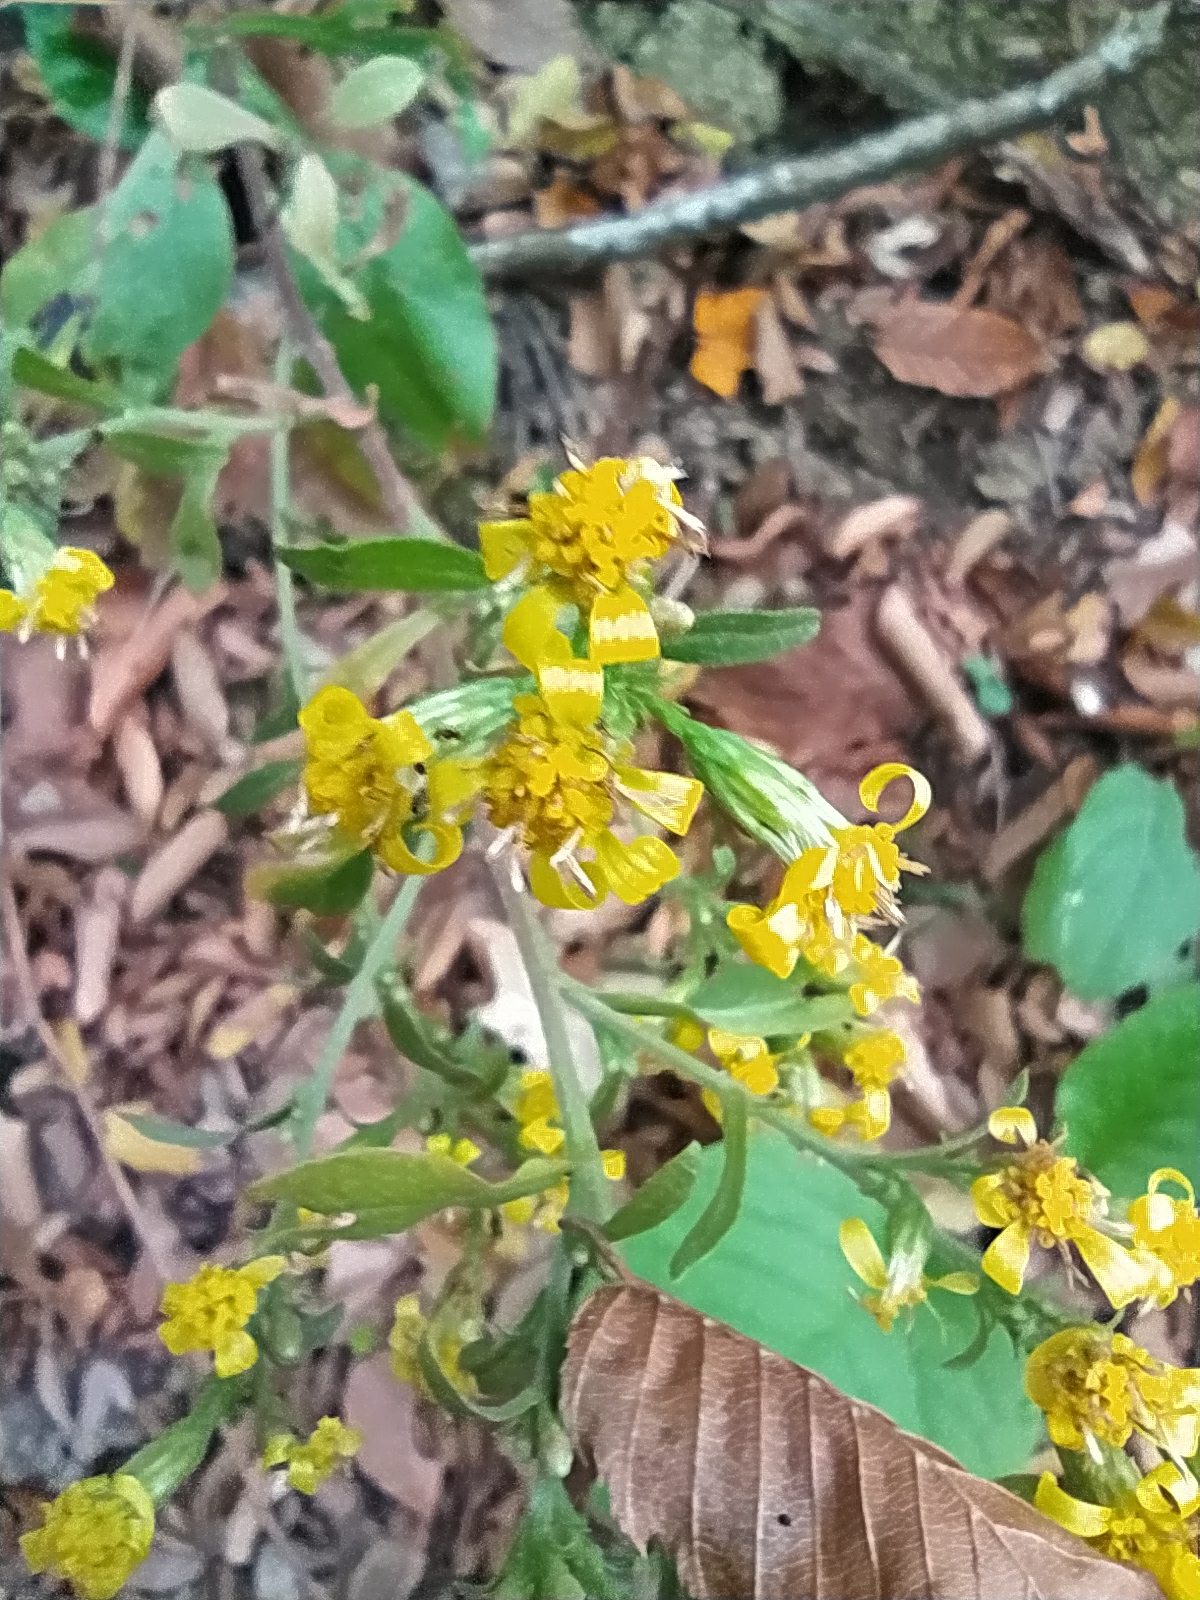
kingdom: Plantae
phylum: Tracheophyta
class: Magnoliopsida
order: Asterales
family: Asteraceae
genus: Solidago
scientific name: Solidago virgaurea
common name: Goldenrod
